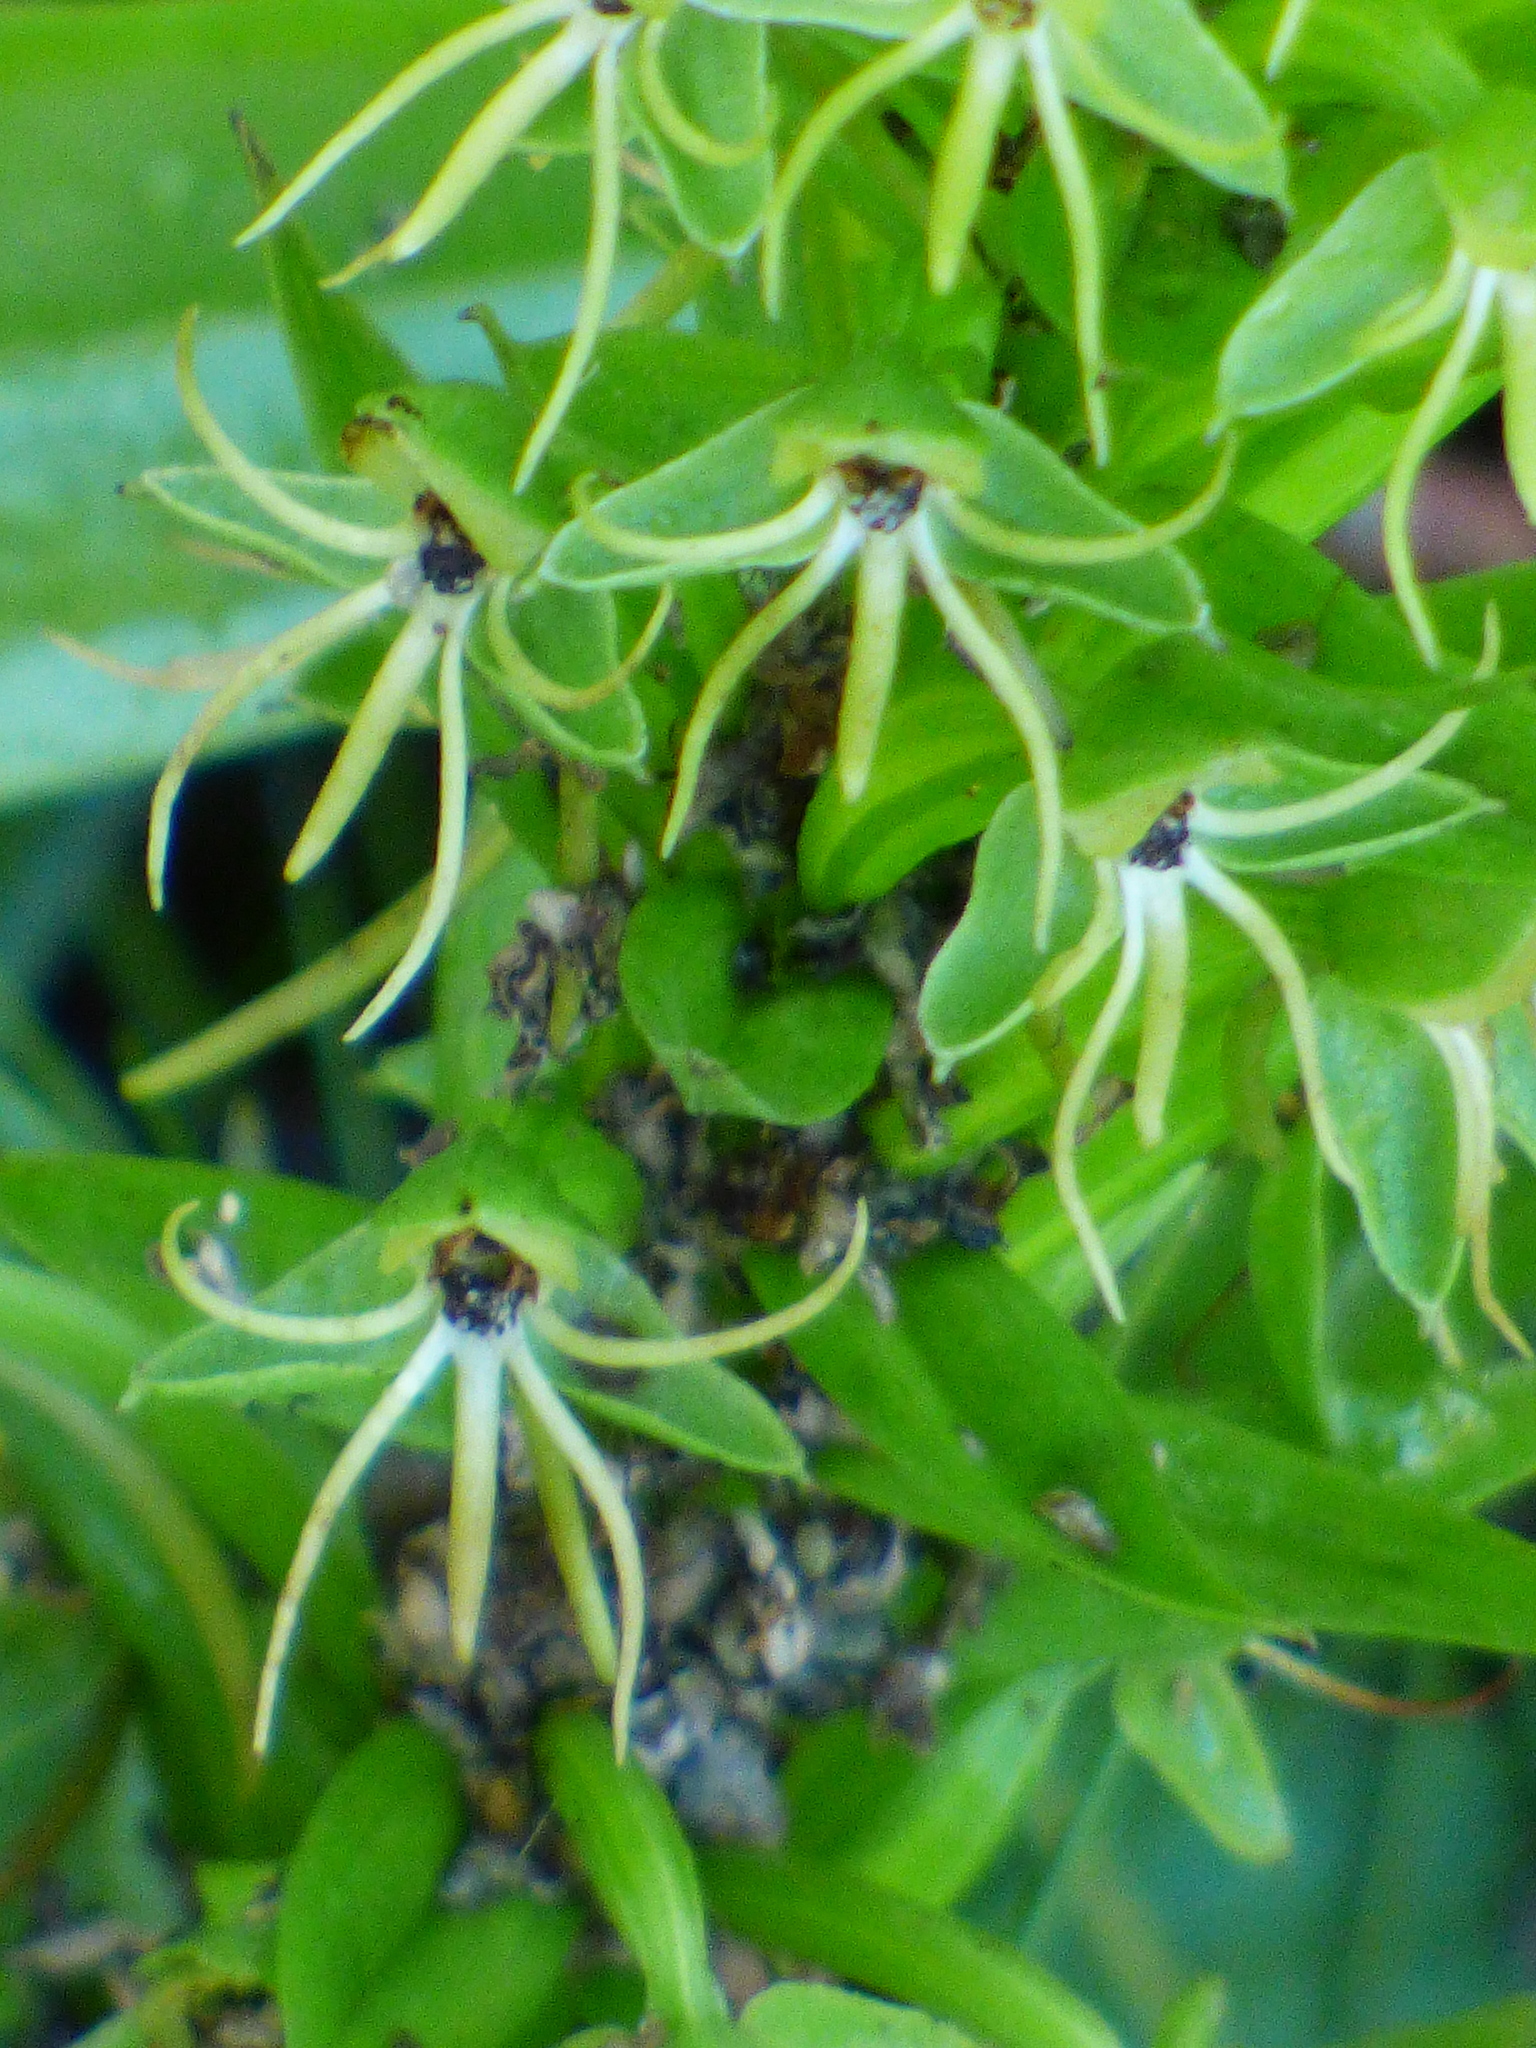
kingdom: Plantae
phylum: Tracheophyta
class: Liliopsida
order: Asparagales
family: Orchidaceae
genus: Habenaria
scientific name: Habenaria repens
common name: Water orchid
